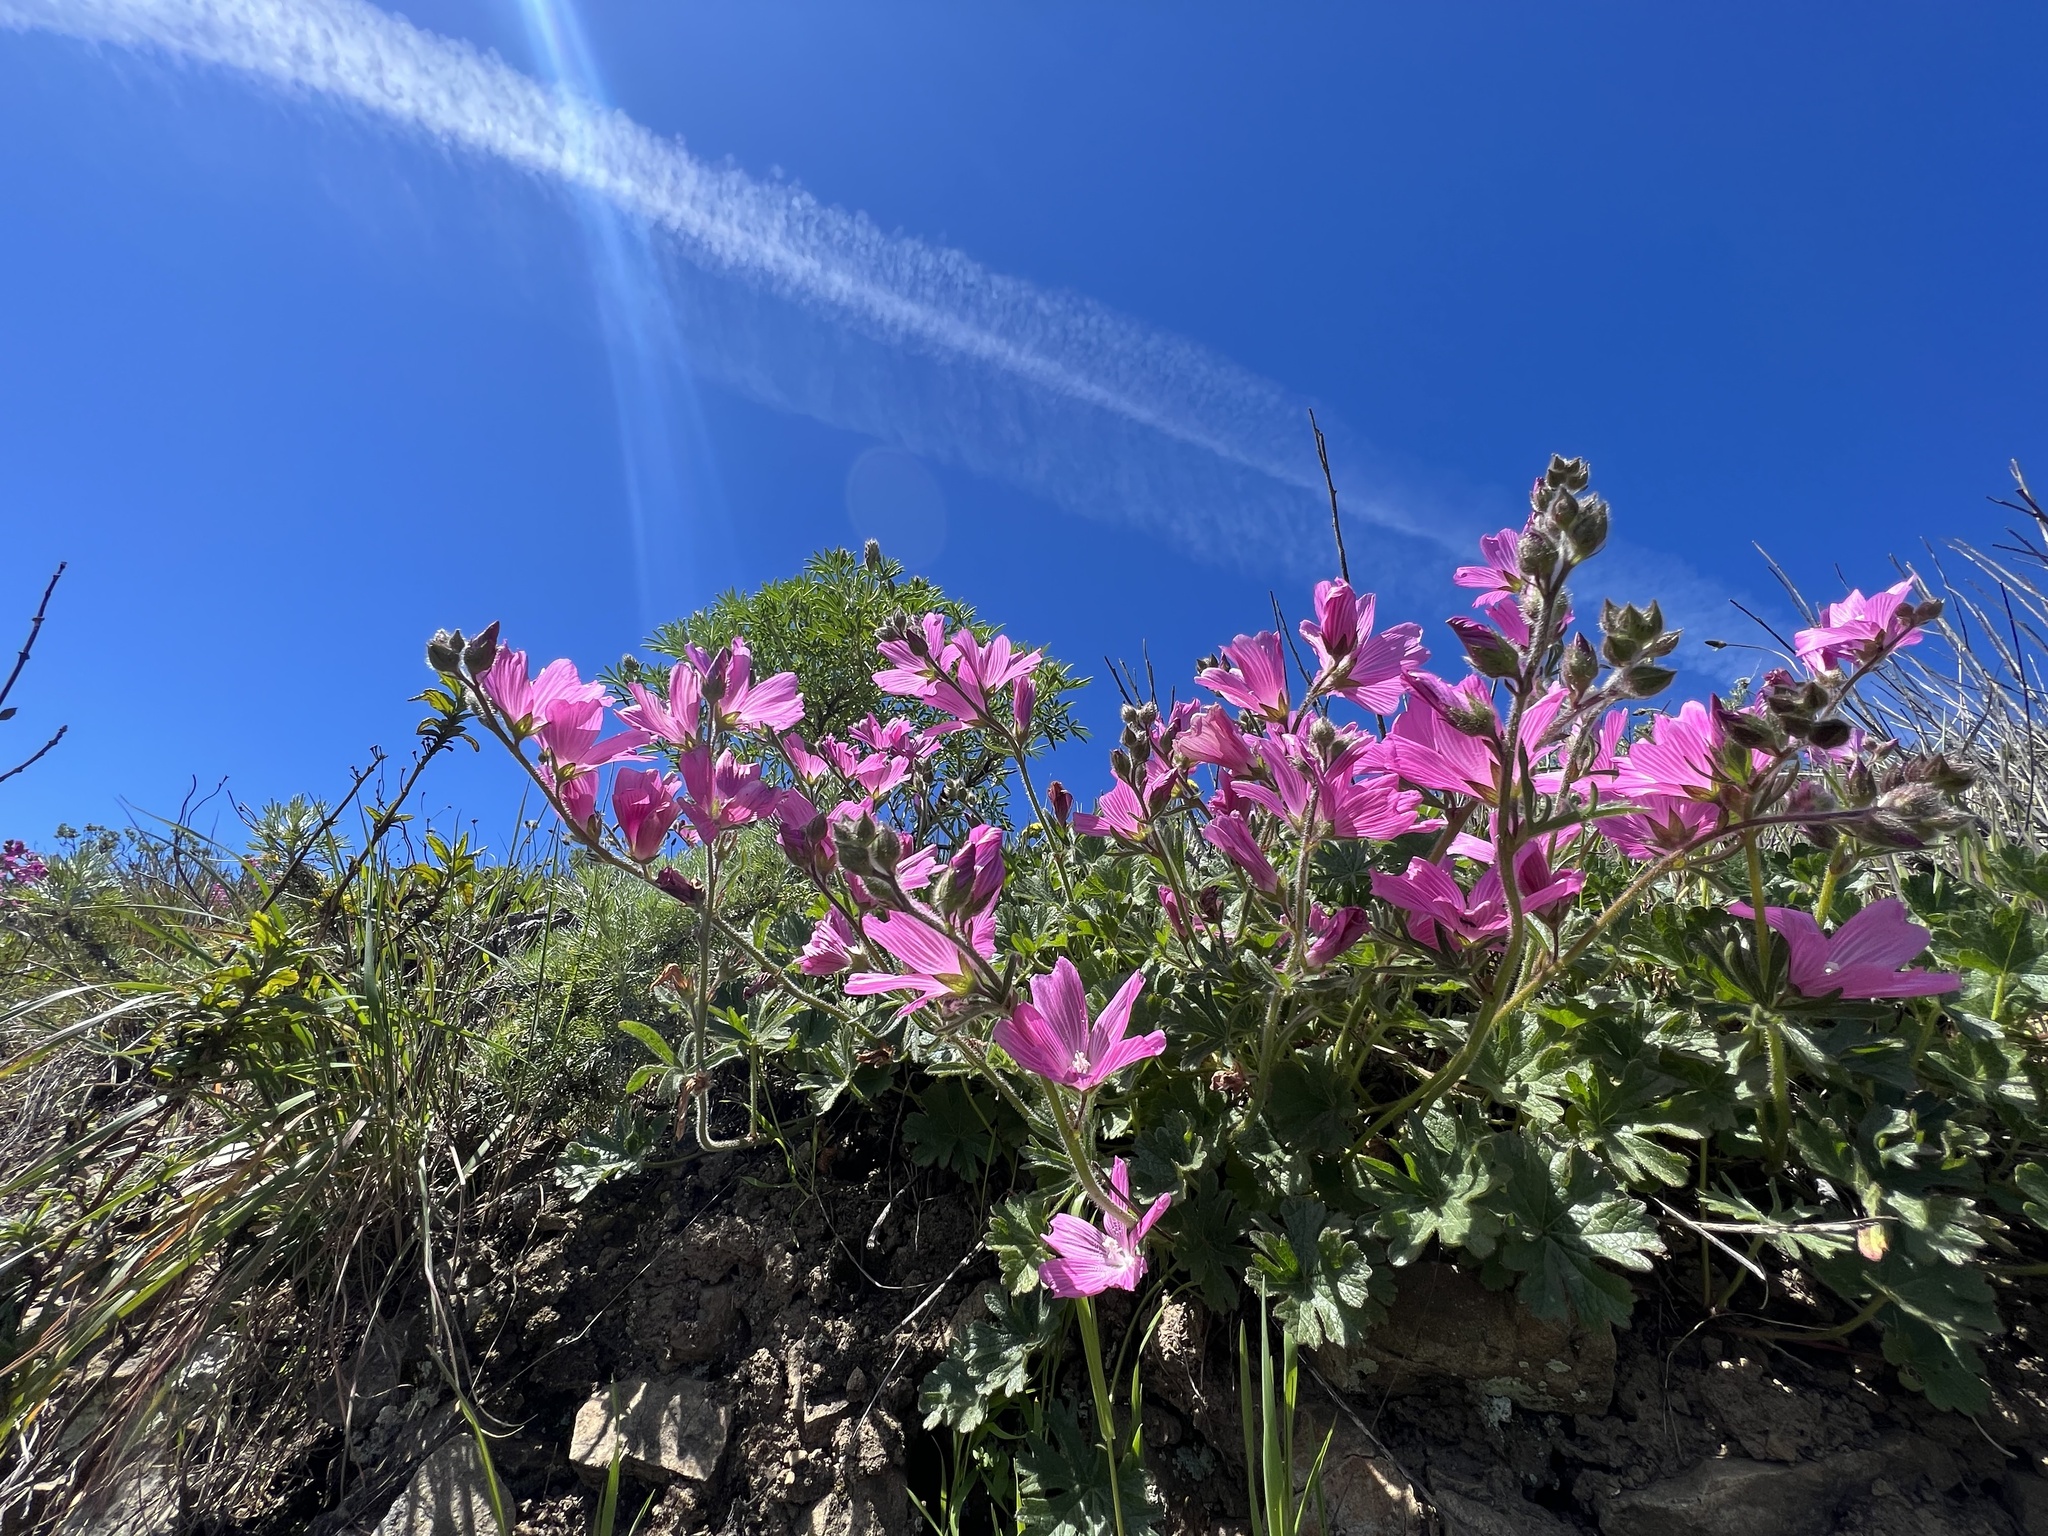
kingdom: Plantae
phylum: Tracheophyta
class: Magnoliopsida
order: Malvales
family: Malvaceae
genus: Sidalcea
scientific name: Sidalcea malviflora
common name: Greek mallow
